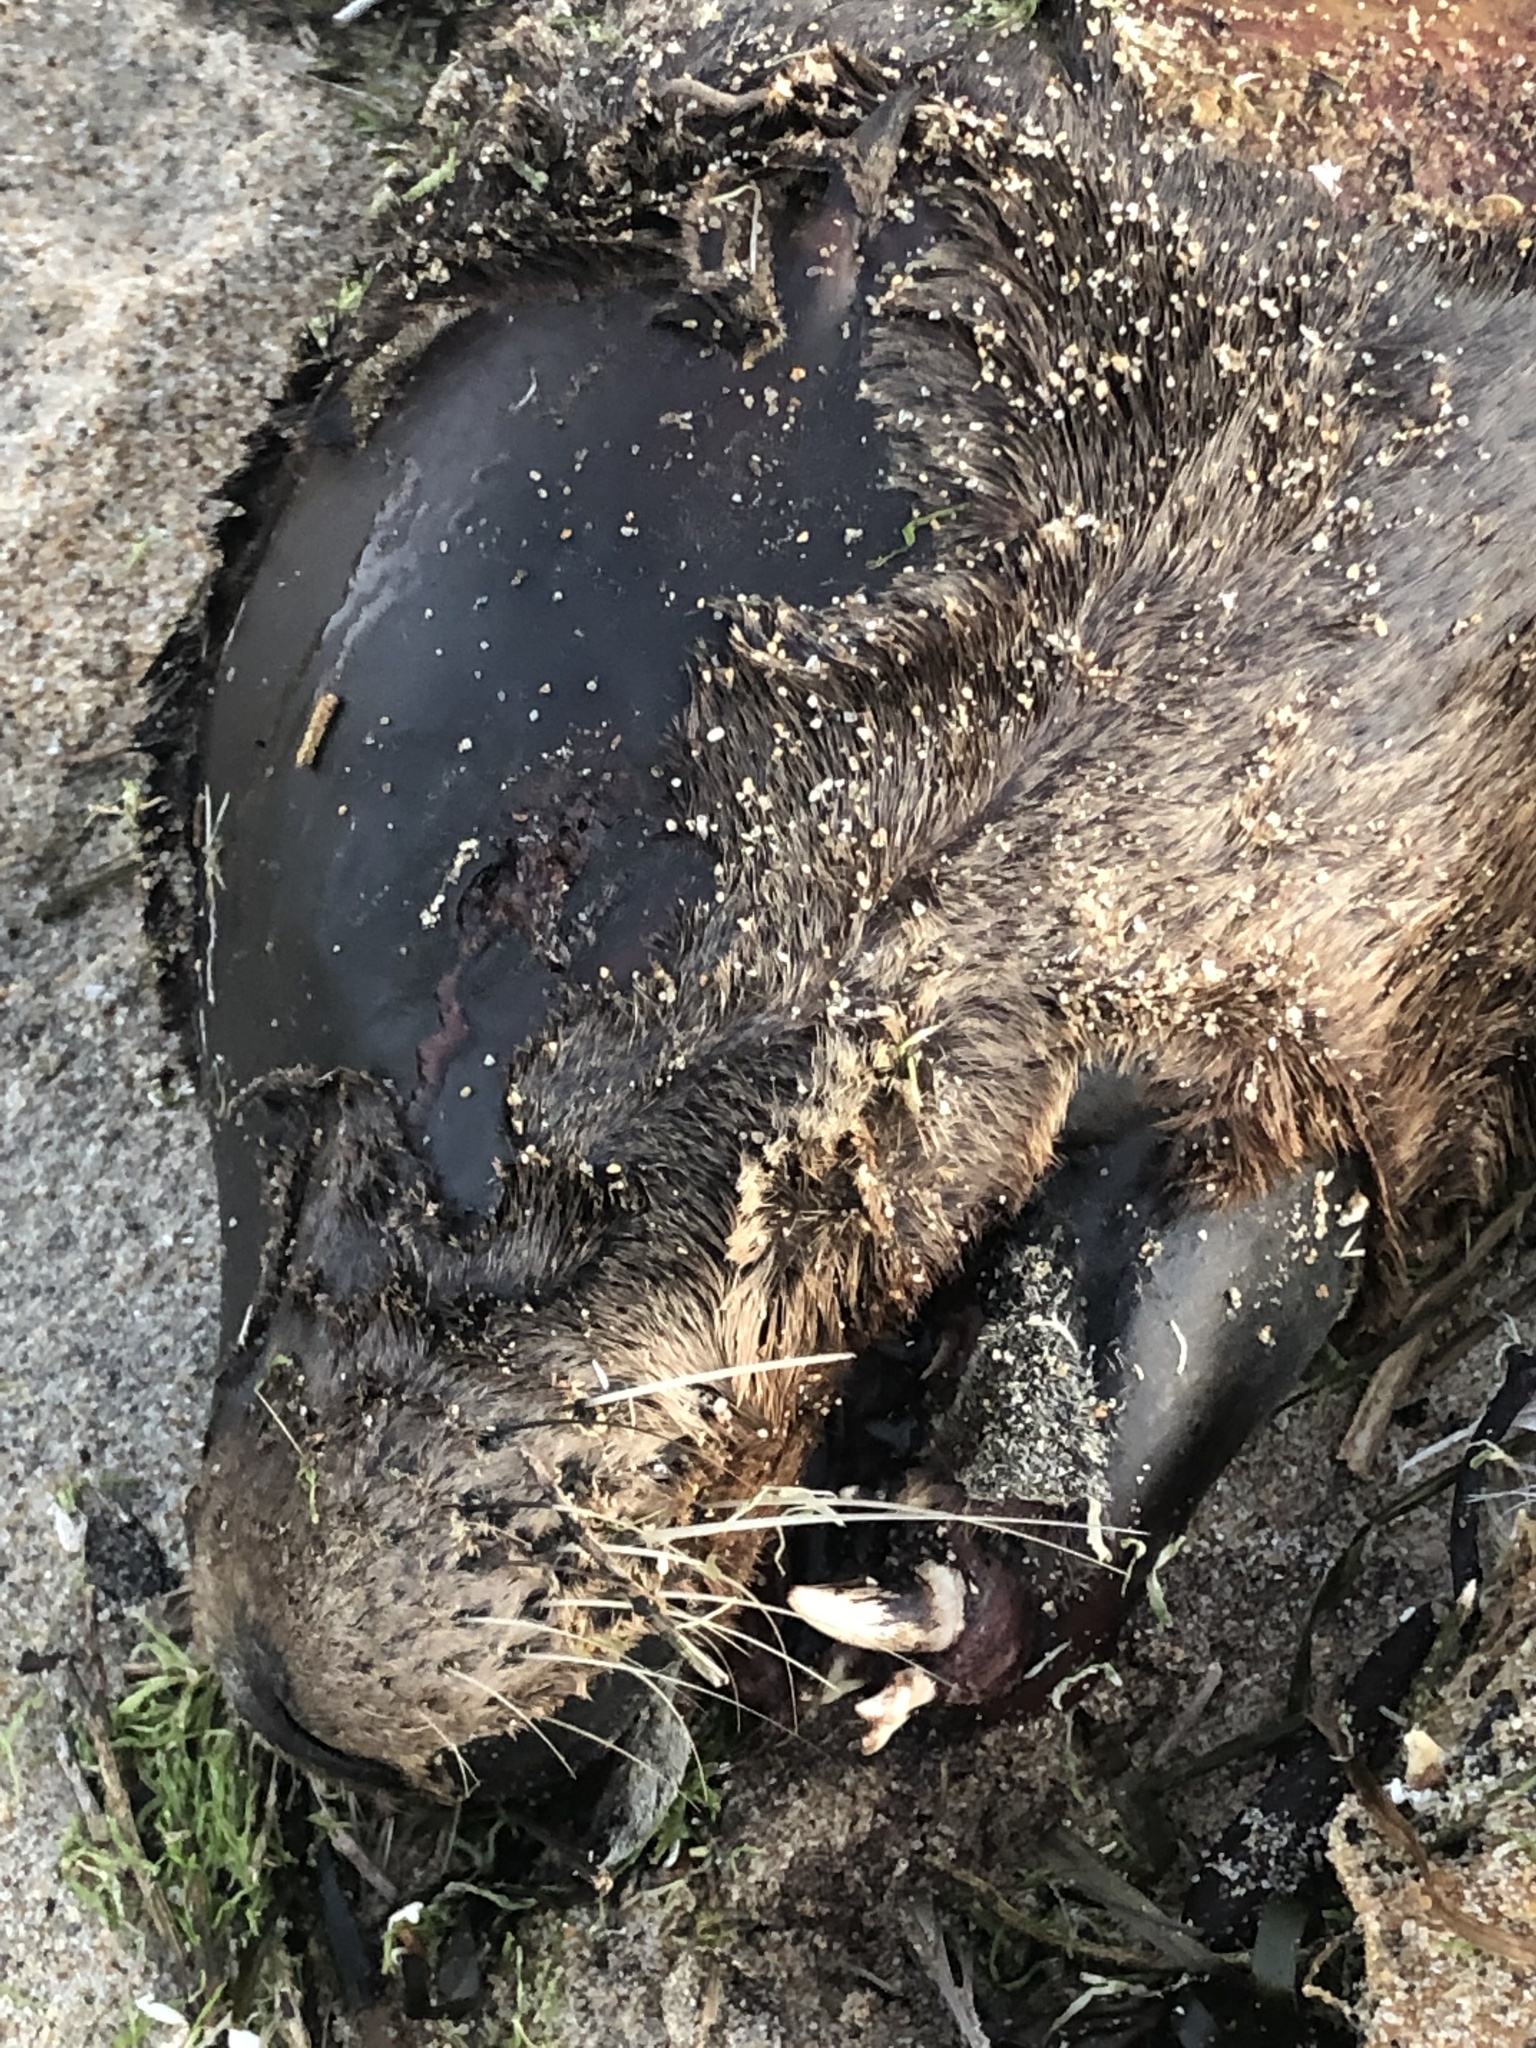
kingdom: Animalia
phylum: Chordata
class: Mammalia
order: Carnivora
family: Otariidae
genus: Zalophus
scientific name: Zalophus californianus
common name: California sea lion
